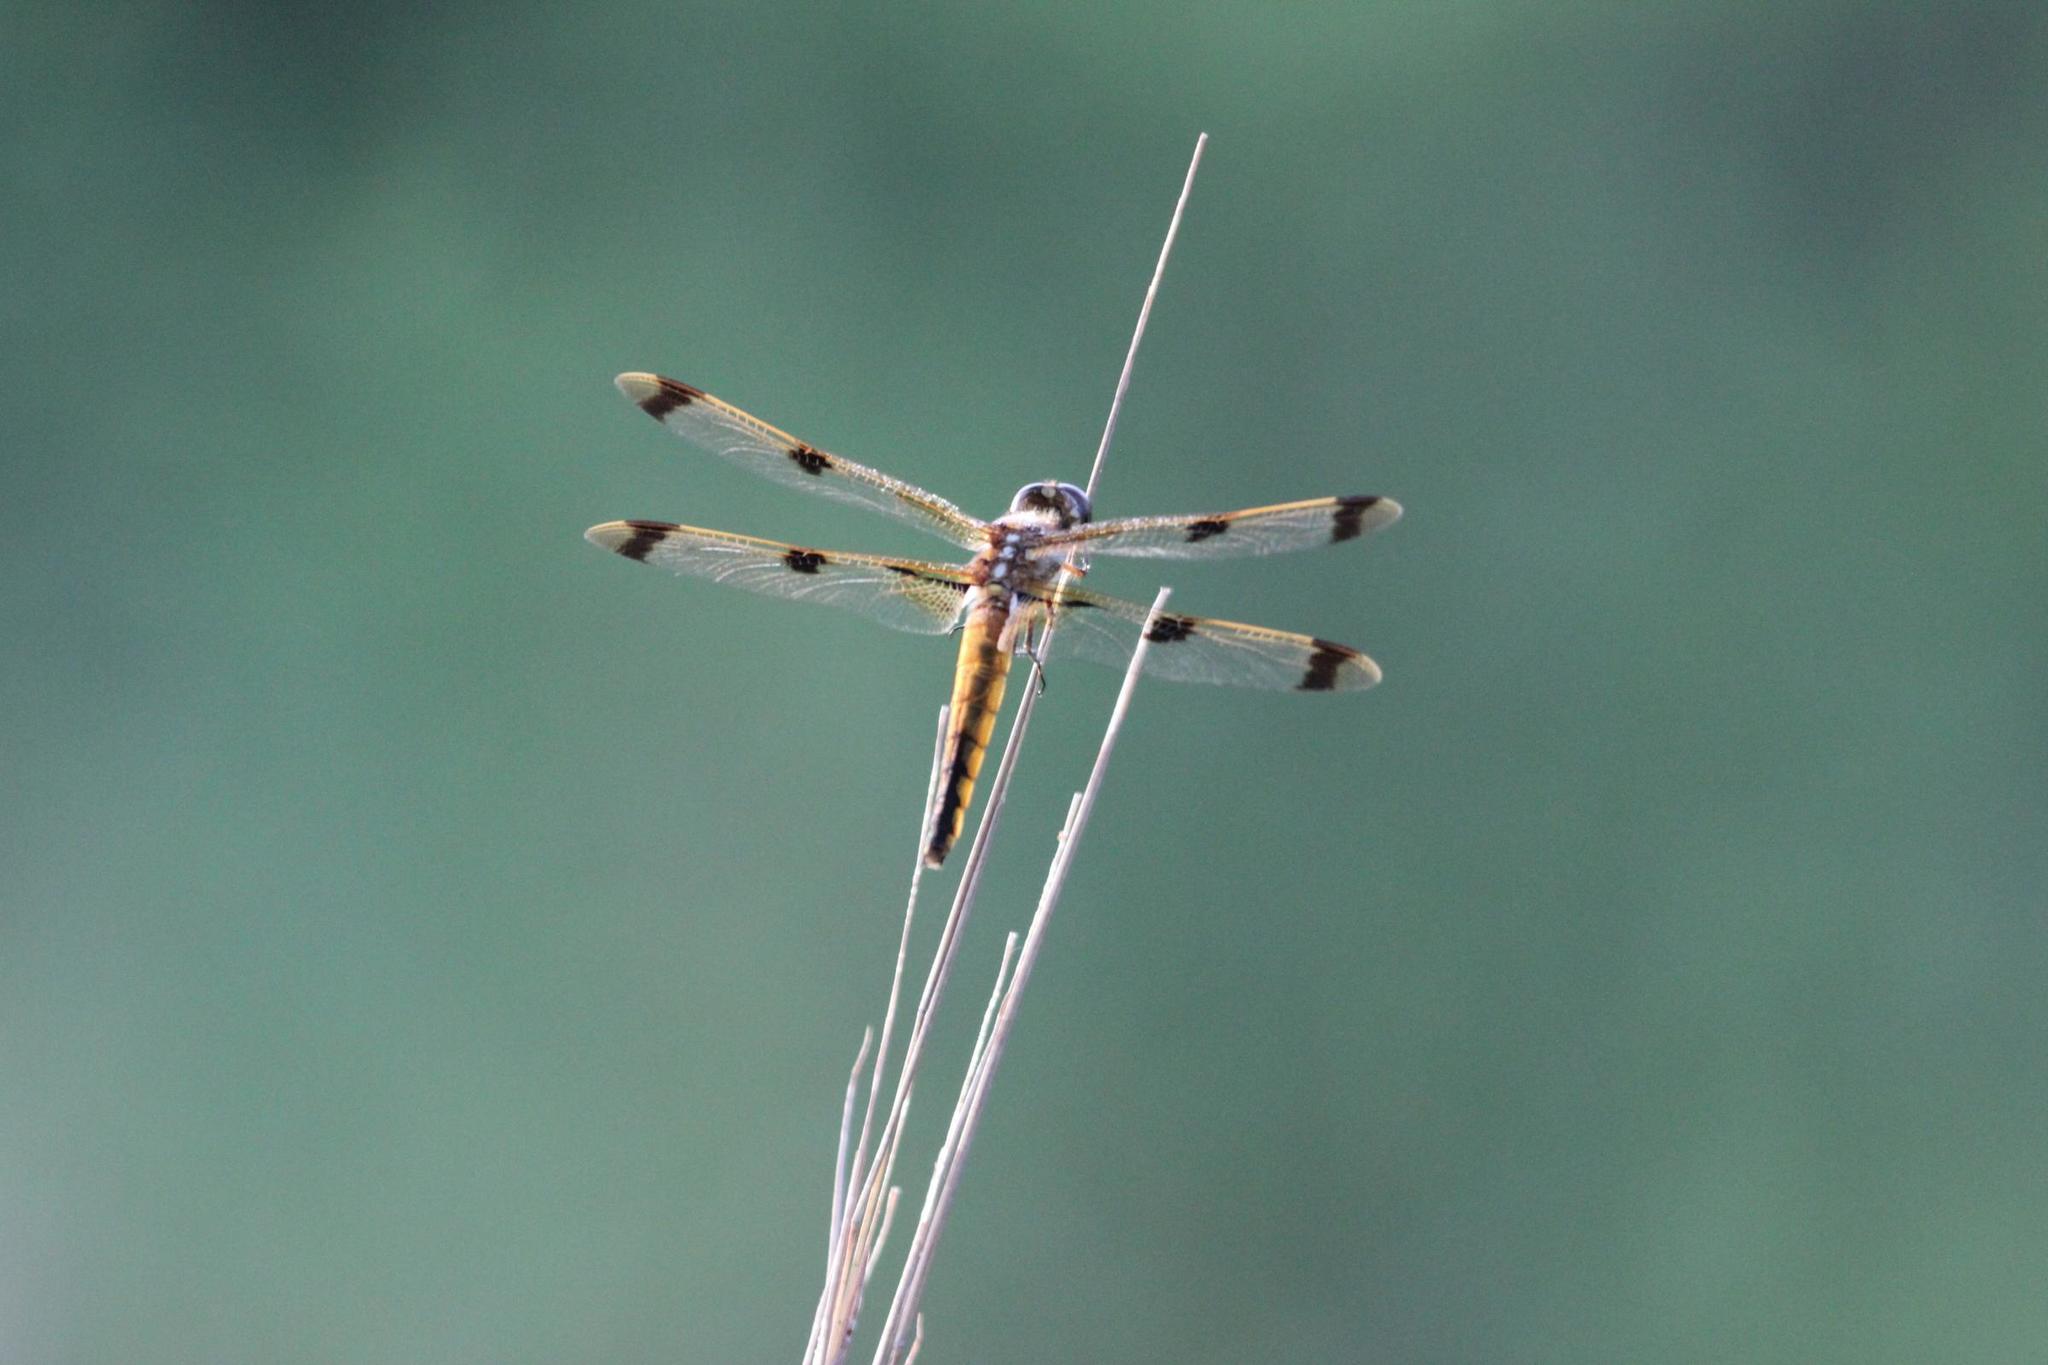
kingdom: Animalia
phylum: Arthropoda
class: Insecta
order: Odonata
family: Libellulidae
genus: Libellula
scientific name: Libellula semifasciata
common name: Painted skimmer
